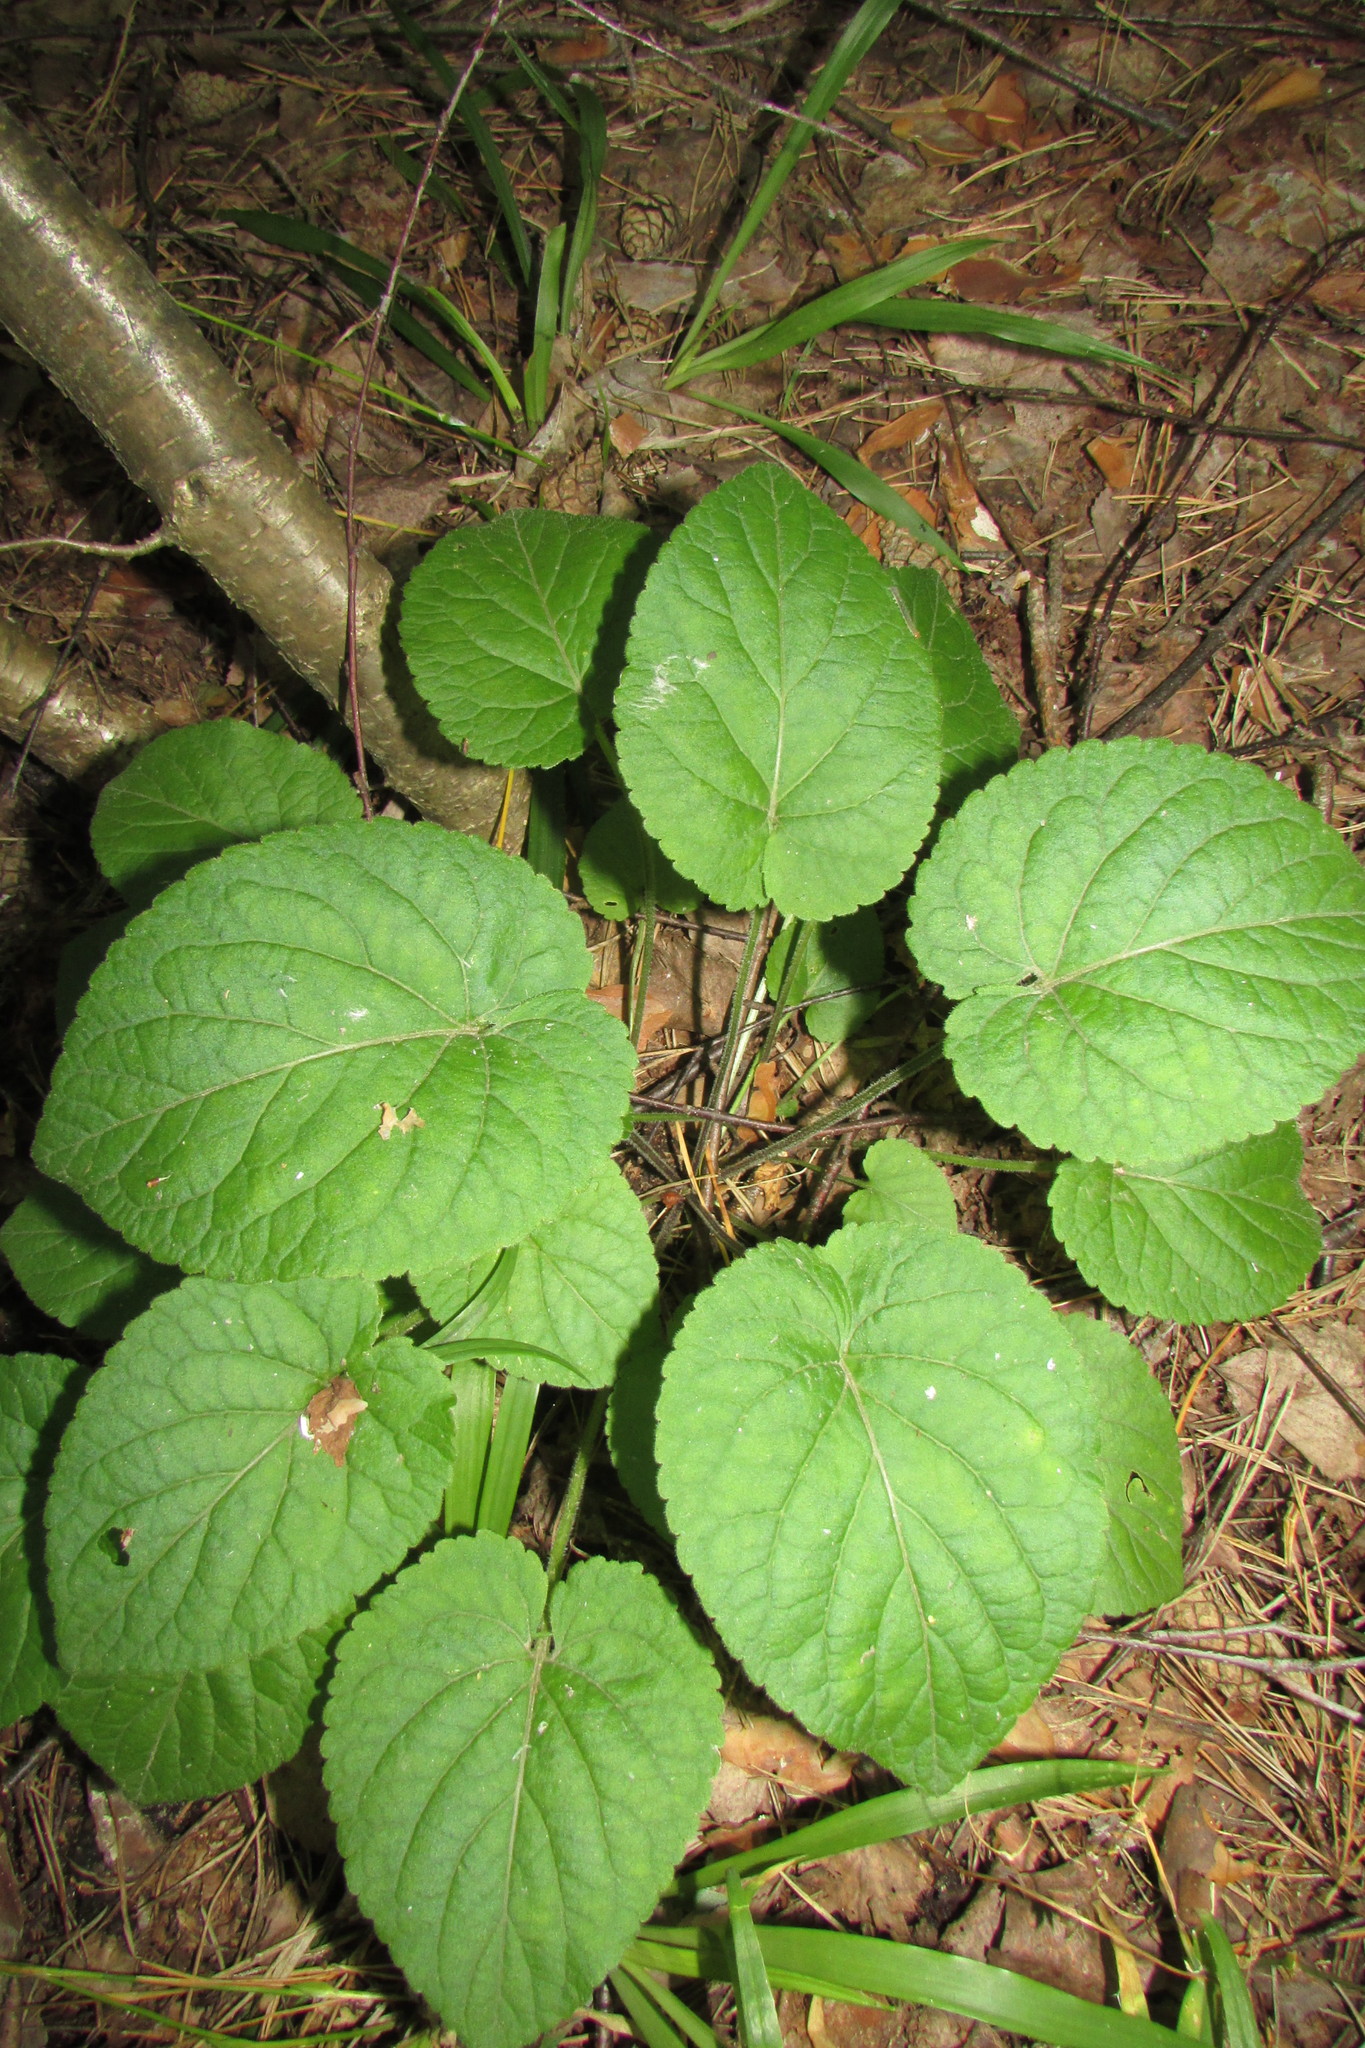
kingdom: Plantae
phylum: Tracheophyta
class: Magnoliopsida
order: Malpighiales
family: Violaceae
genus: Viola
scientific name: Viola collina
